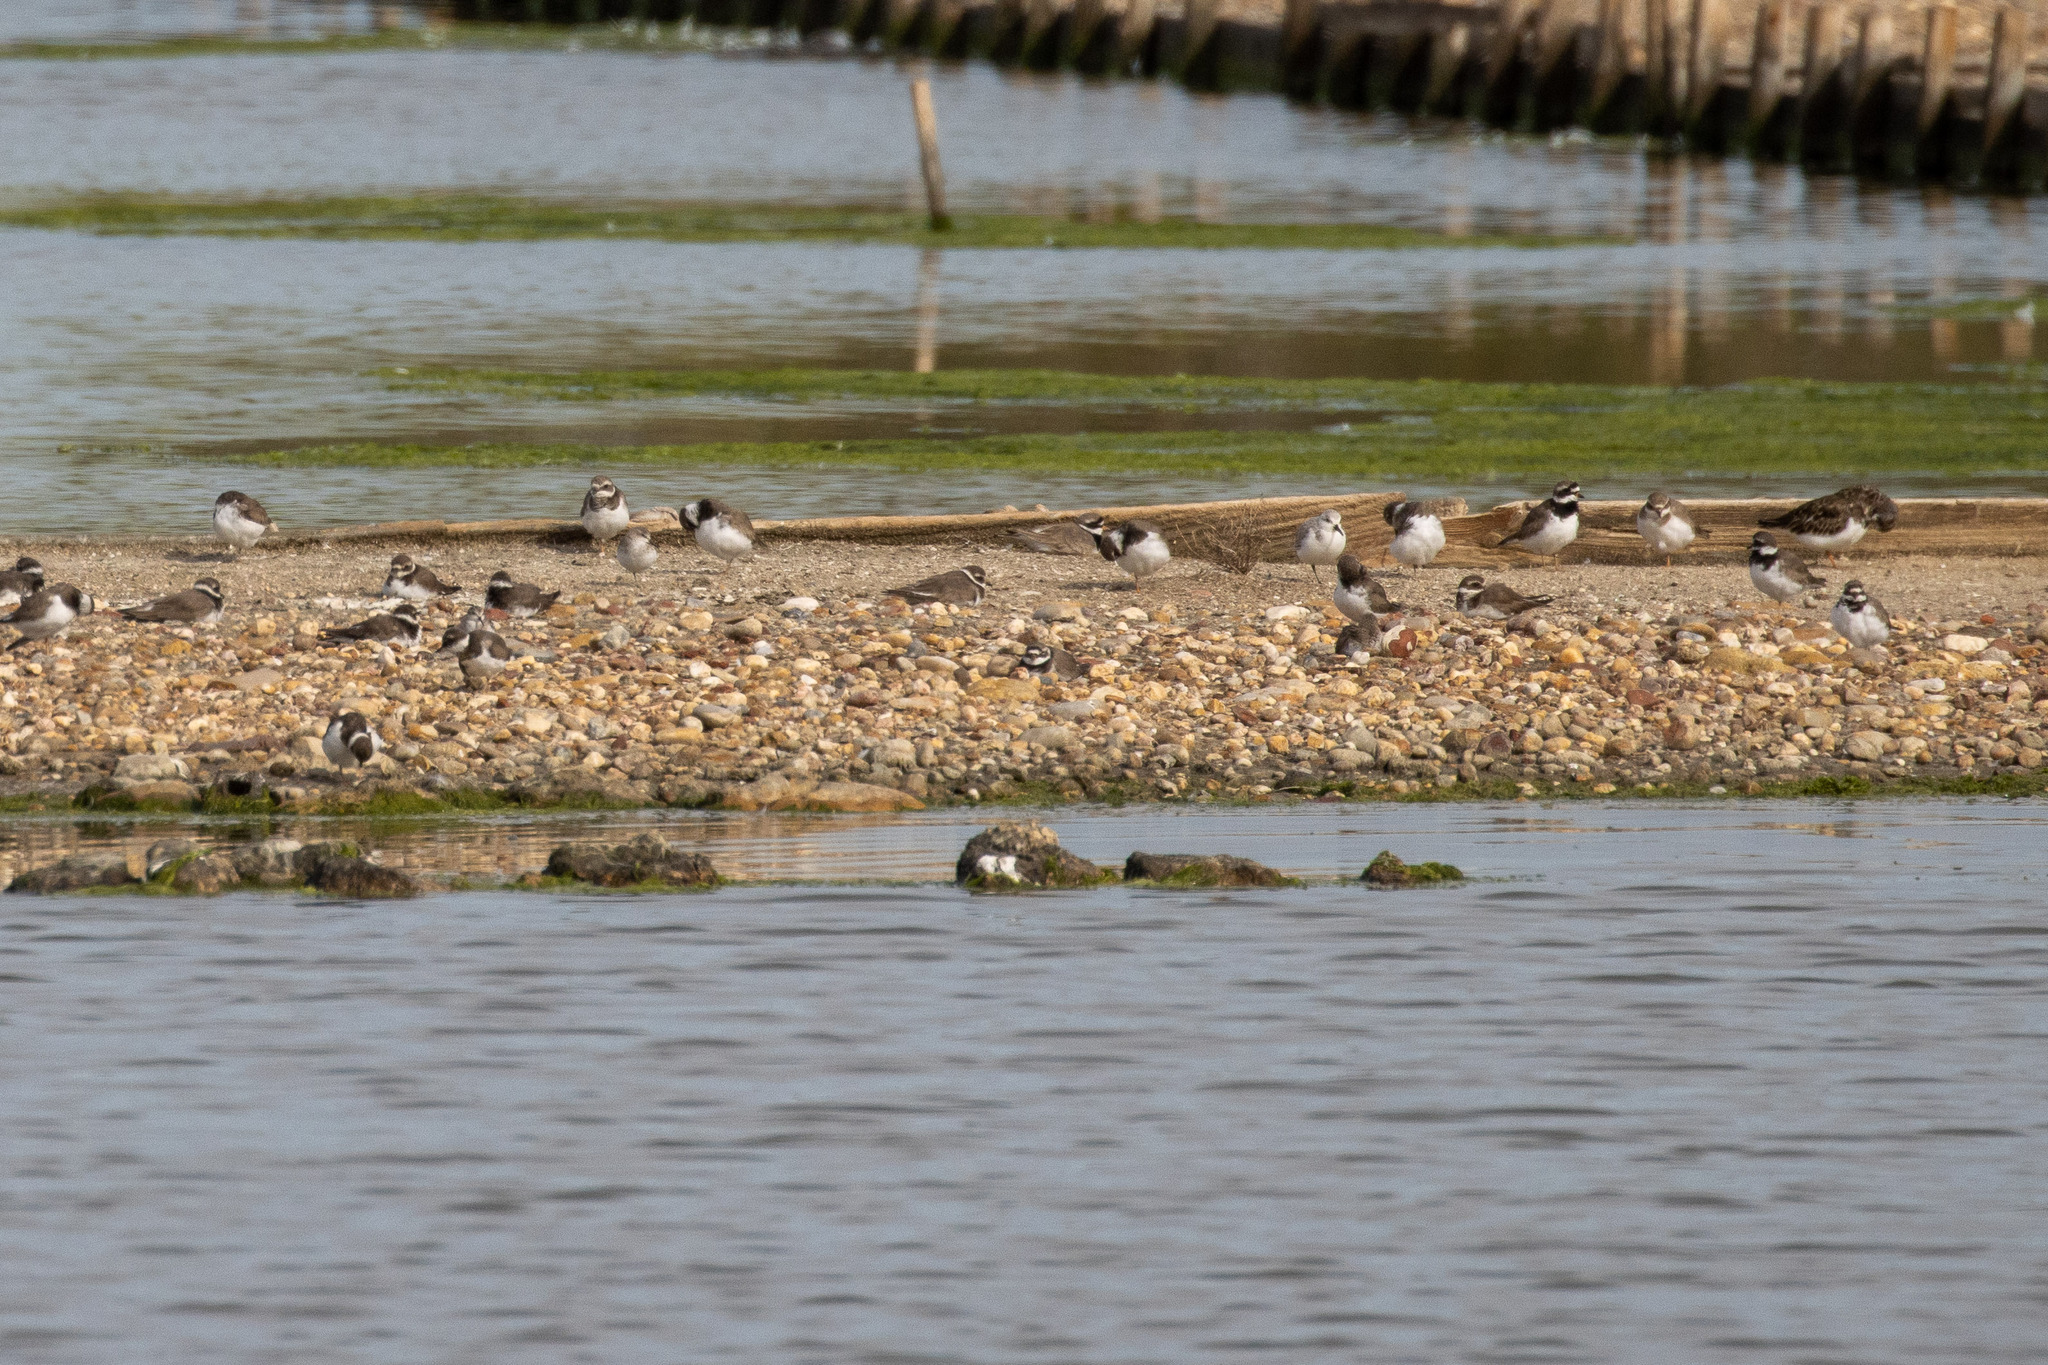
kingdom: Animalia
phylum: Chordata
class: Aves
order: Charadriiformes
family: Charadriidae
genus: Charadrius
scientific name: Charadrius hiaticula
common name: Common ringed plover
